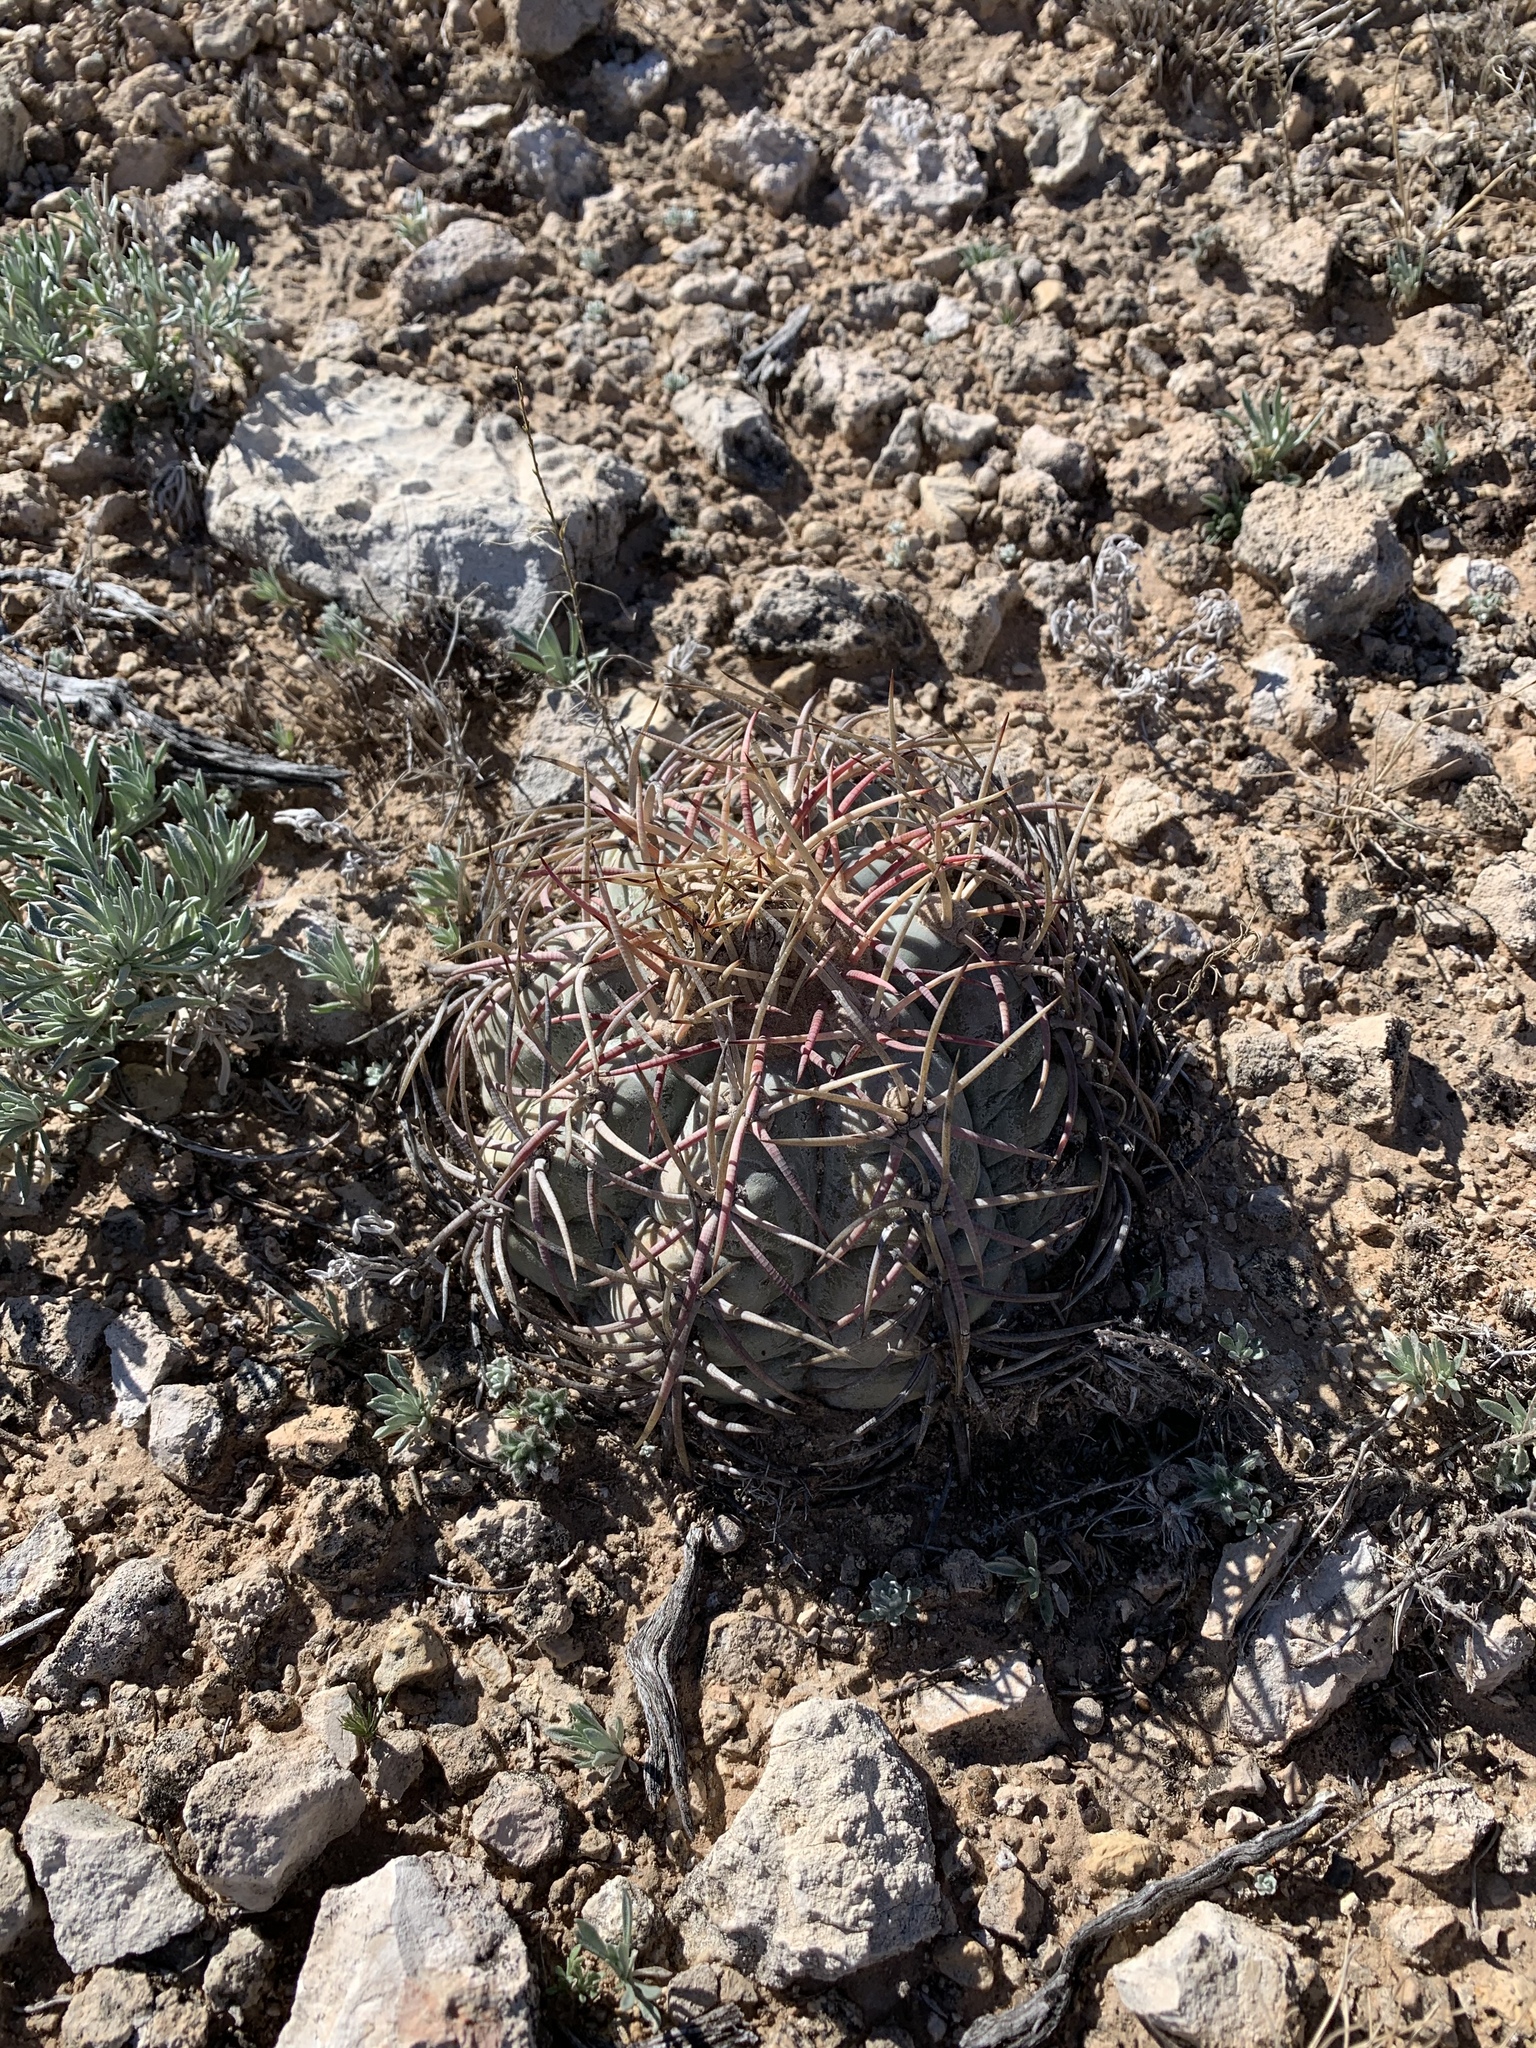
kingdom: Plantae
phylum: Tracheophyta
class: Magnoliopsida
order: Caryophyllales
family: Cactaceae
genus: Echinocactus
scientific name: Echinocactus horizonthalonius
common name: Devilshead
